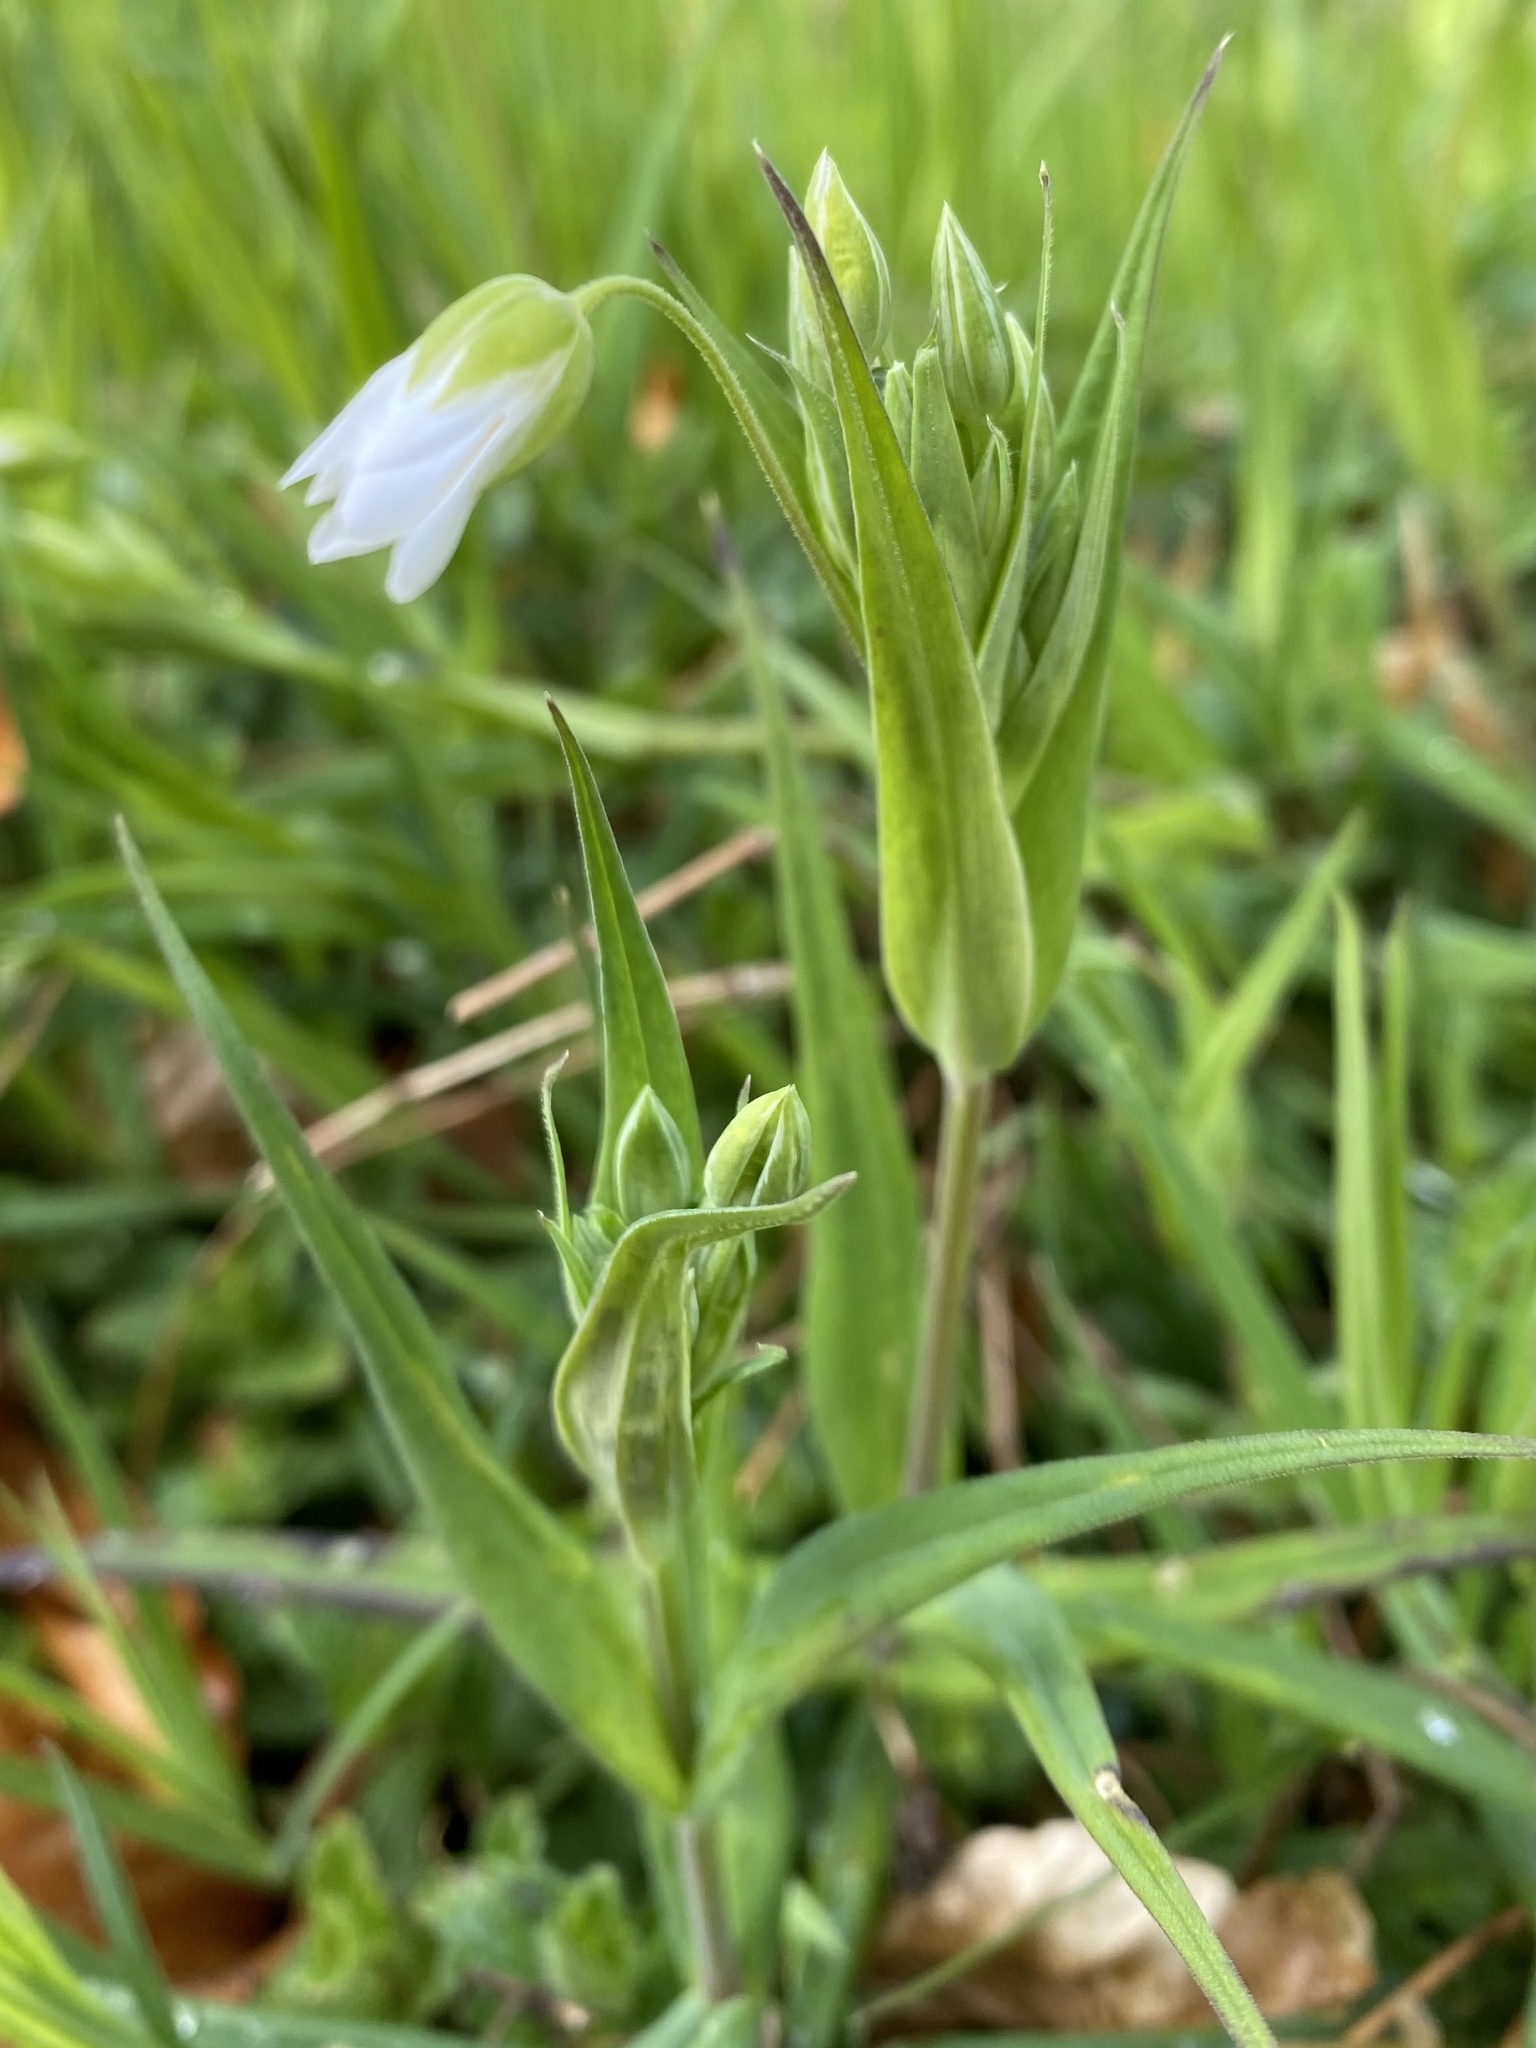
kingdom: Plantae
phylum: Tracheophyta
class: Magnoliopsida
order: Caryophyllales
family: Caryophyllaceae
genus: Rabelera
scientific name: Rabelera holostea
